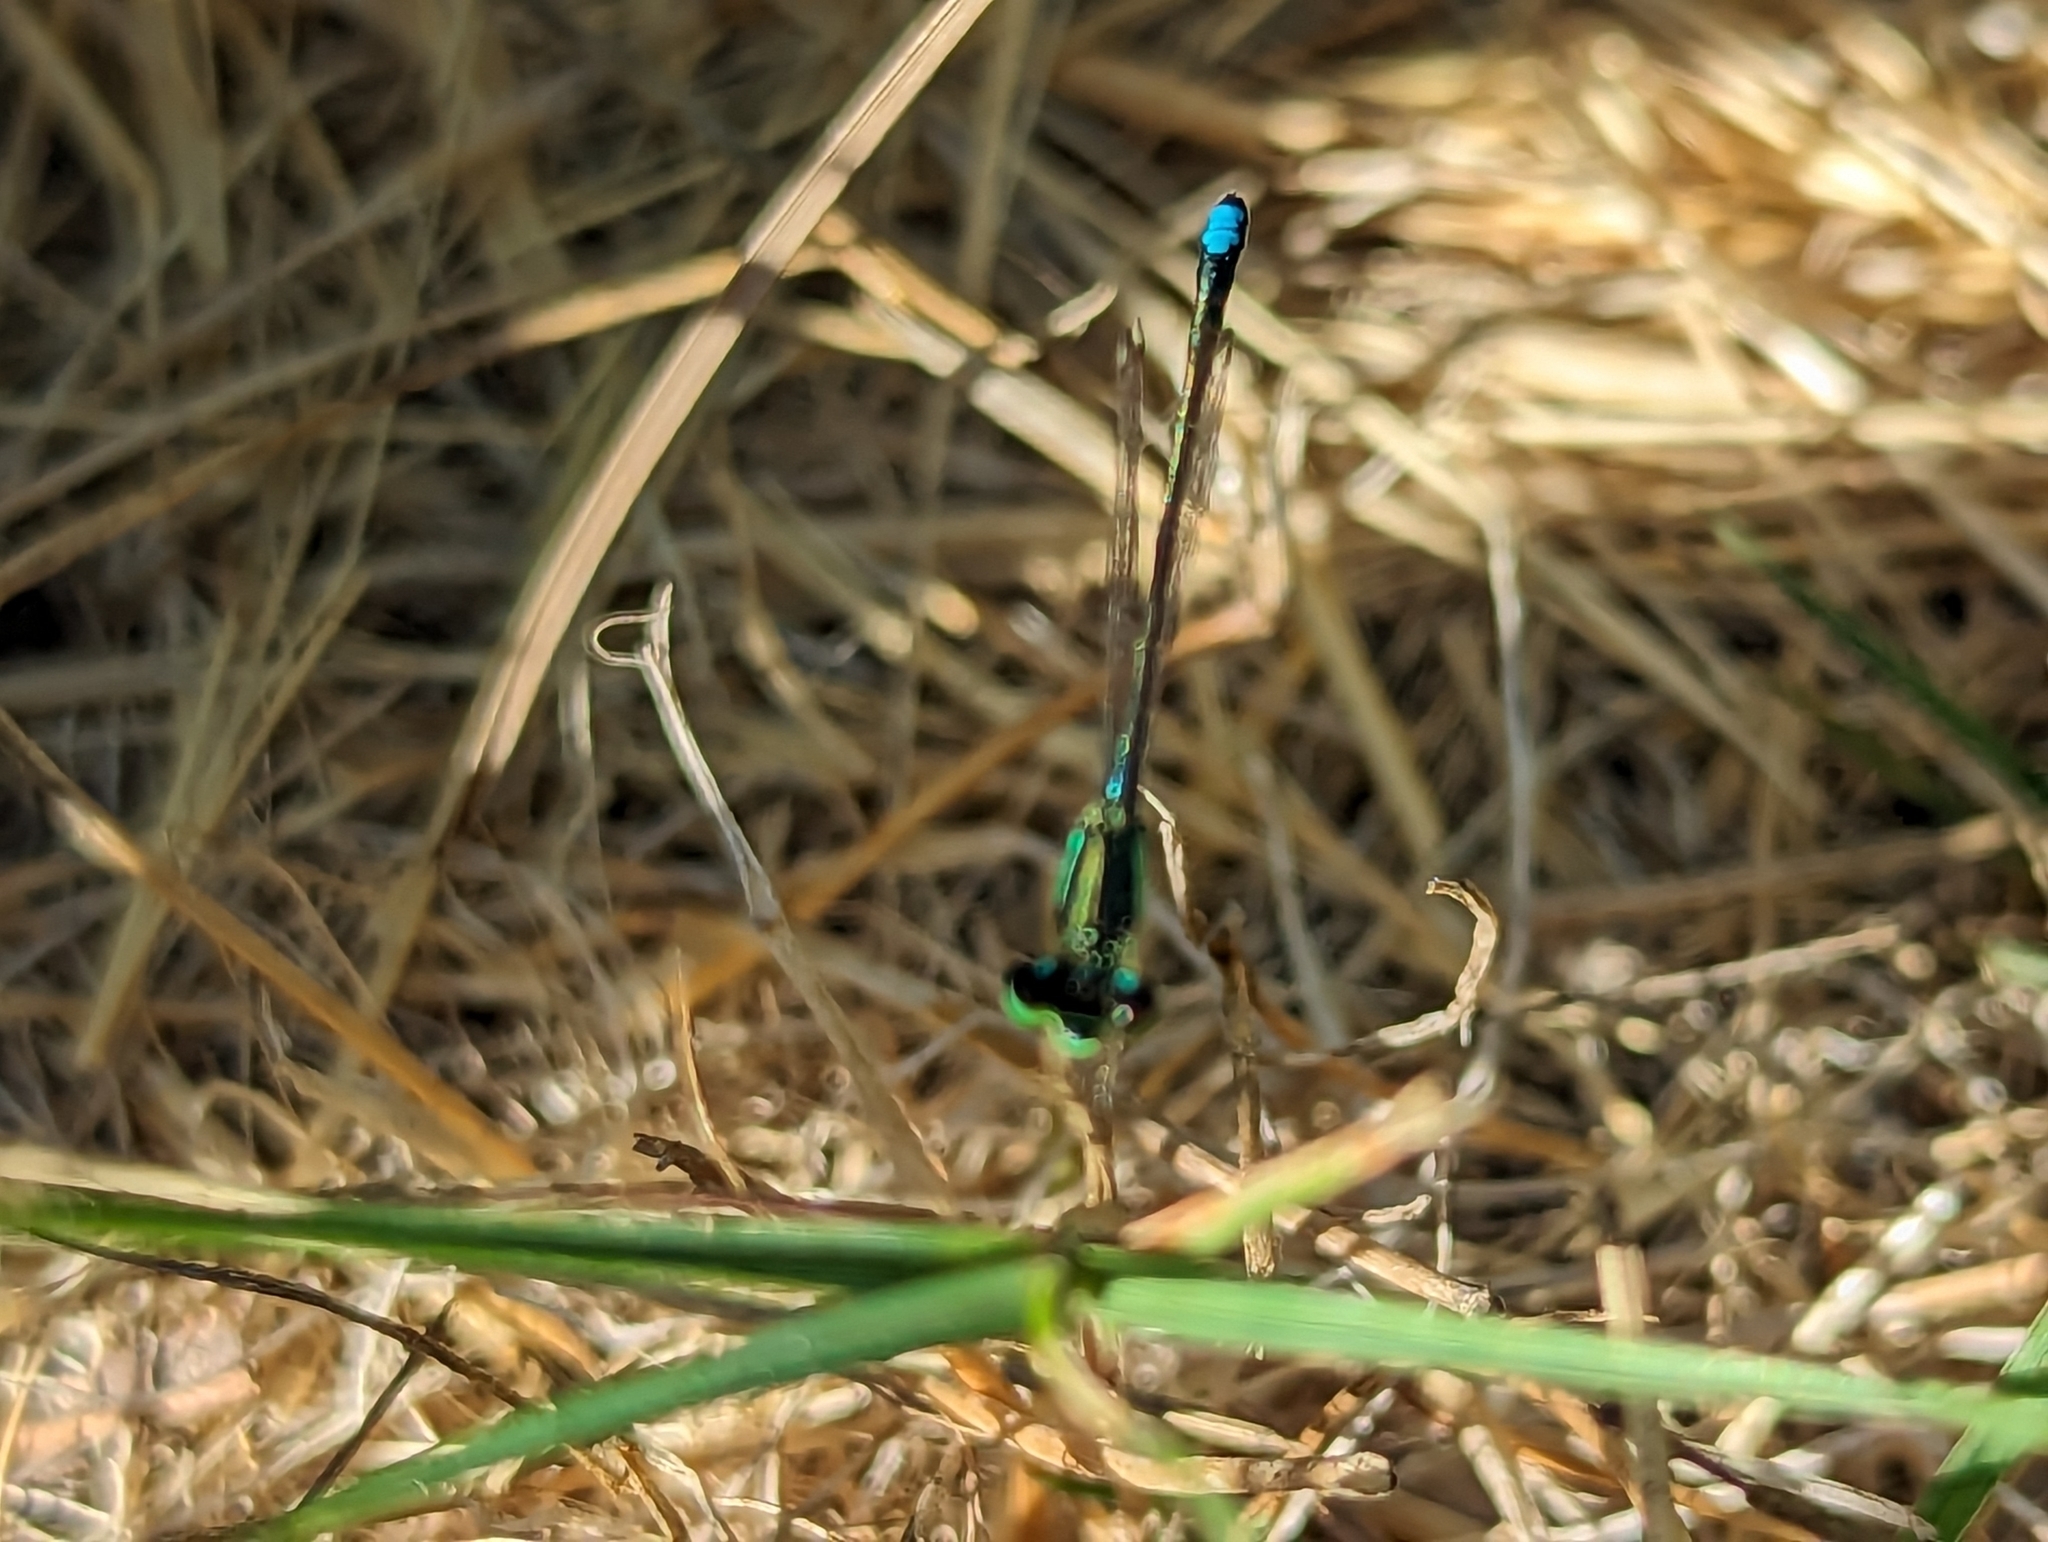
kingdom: Animalia
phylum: Arthropoda
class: Insecta
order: Odonata
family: Coenagrionidae
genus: Ischnura
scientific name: Ischnura perparva
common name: Western forktail
